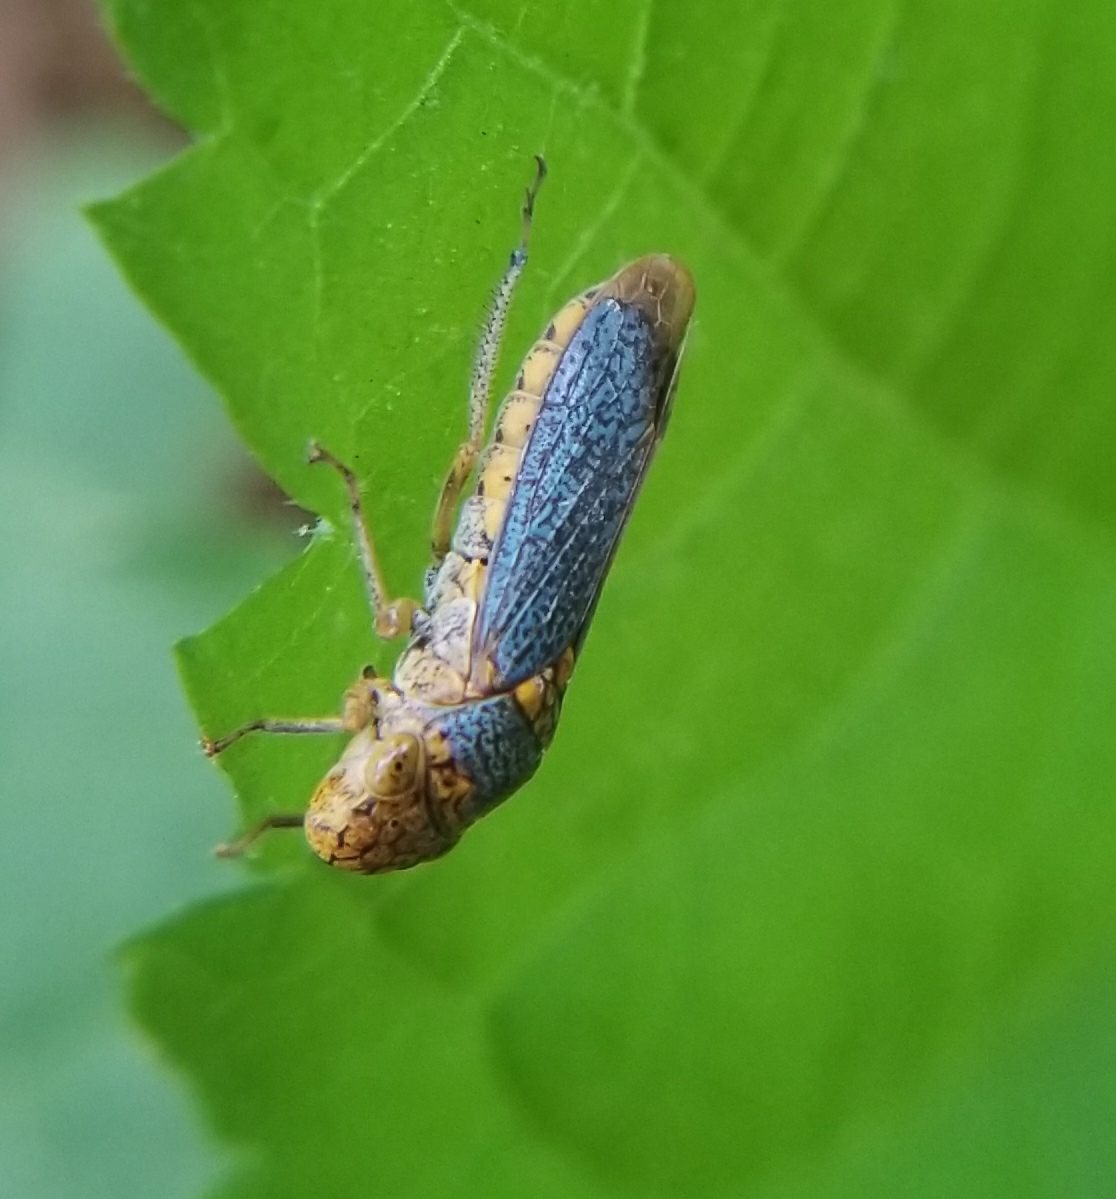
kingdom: Animalia
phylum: Arthropoda
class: Insecta
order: Hemiptera
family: Cicadellidae
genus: Oncometopia
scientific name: Oncometopia orbona
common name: Broad-headed sharpshooter
